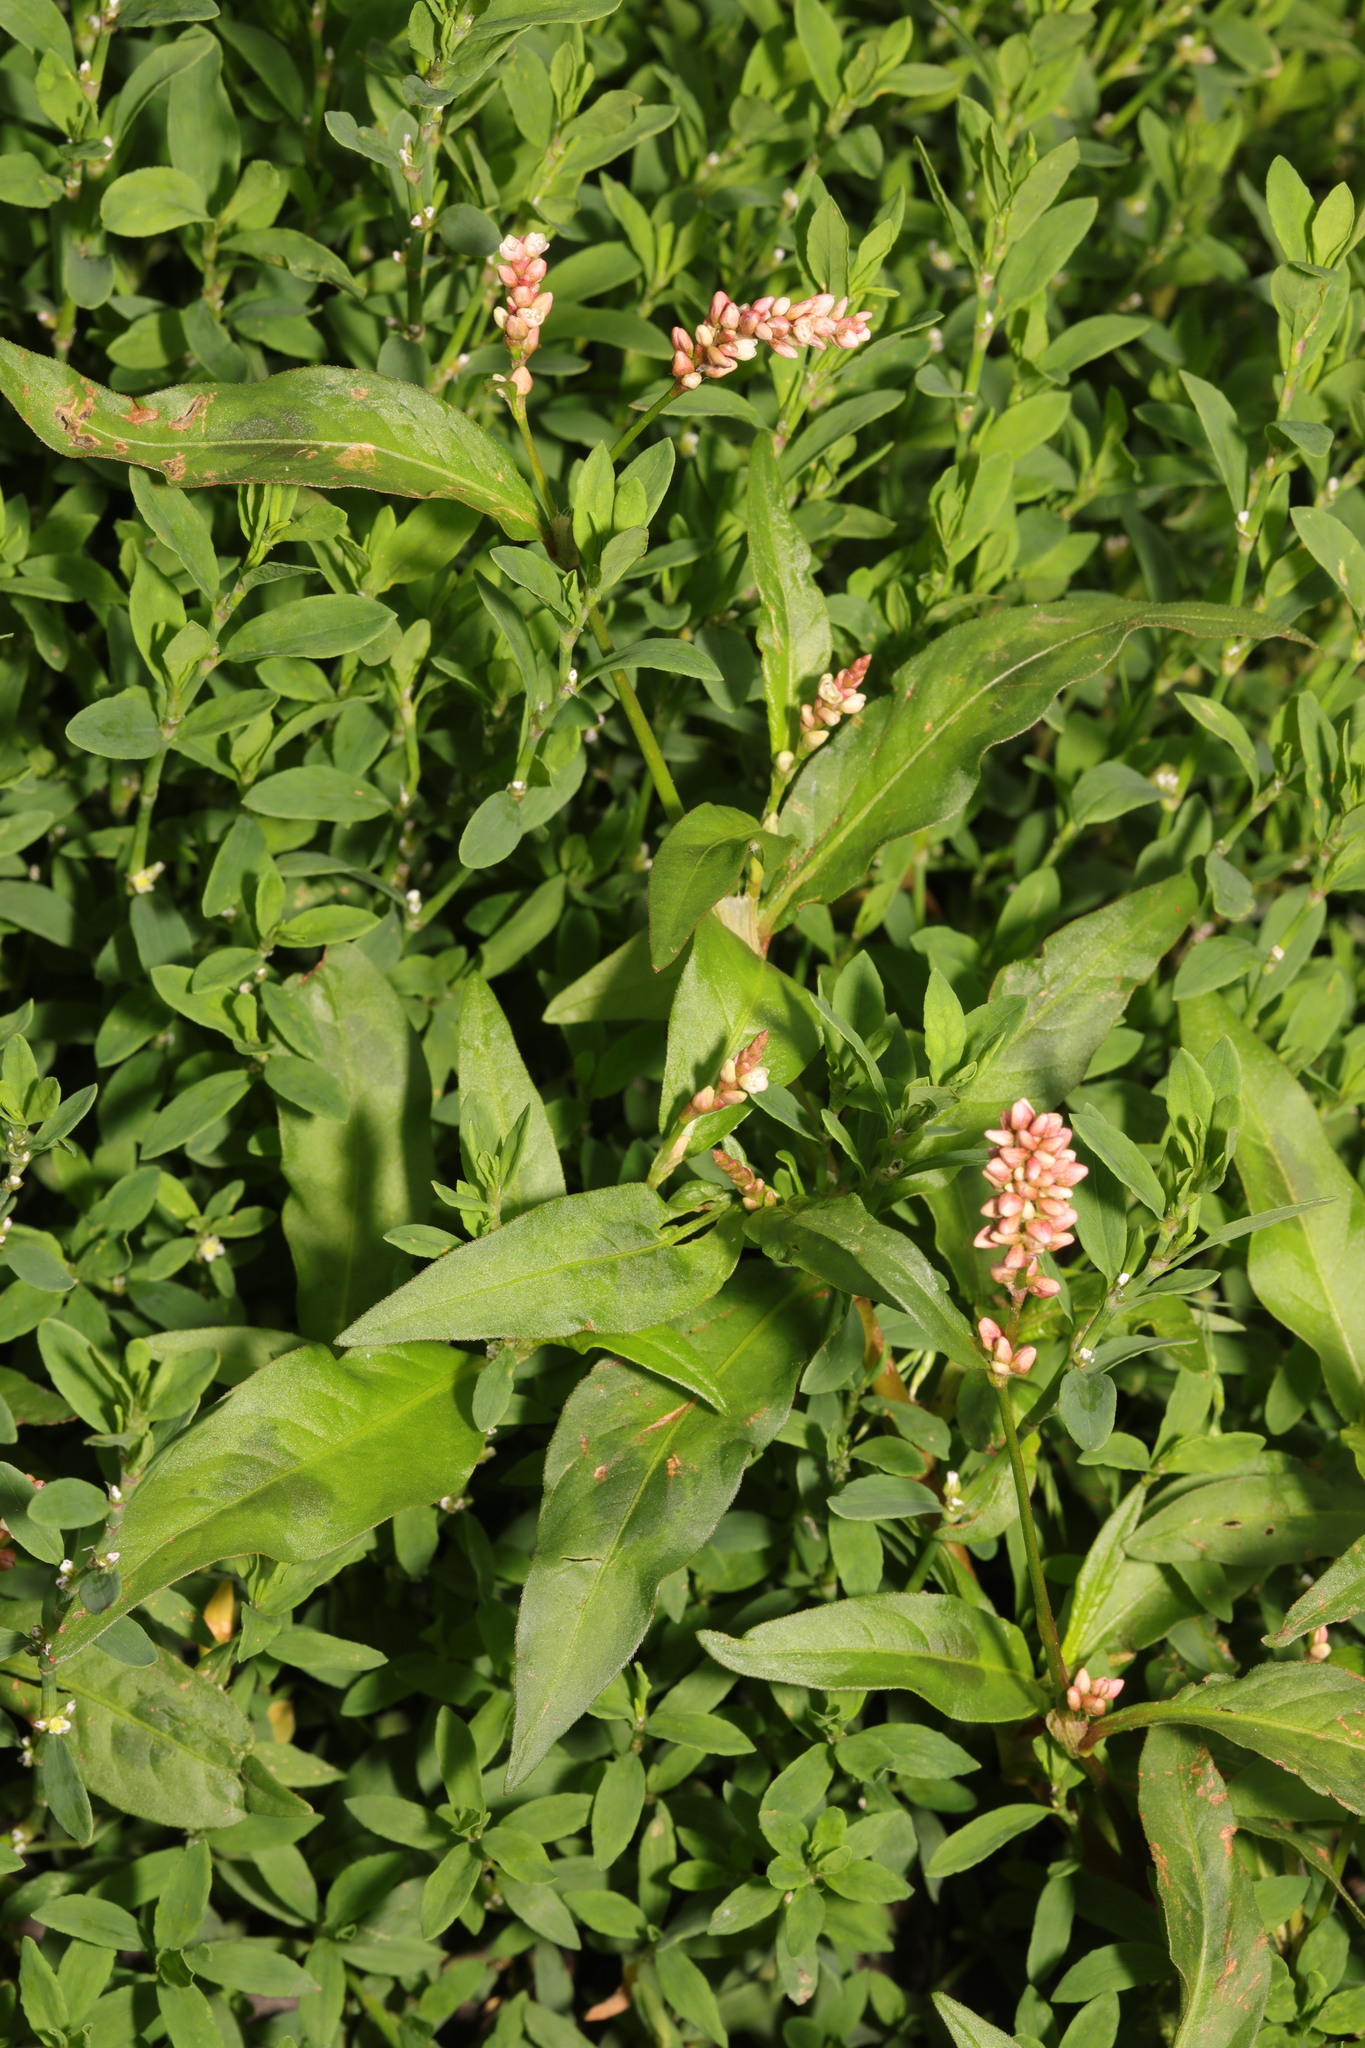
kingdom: Plantae
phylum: Tracheophyta
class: Magnoliopsida
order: Caryophyllales
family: Polygonaceae
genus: Persicaria
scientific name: Persicaria maculosa
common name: Redshank
